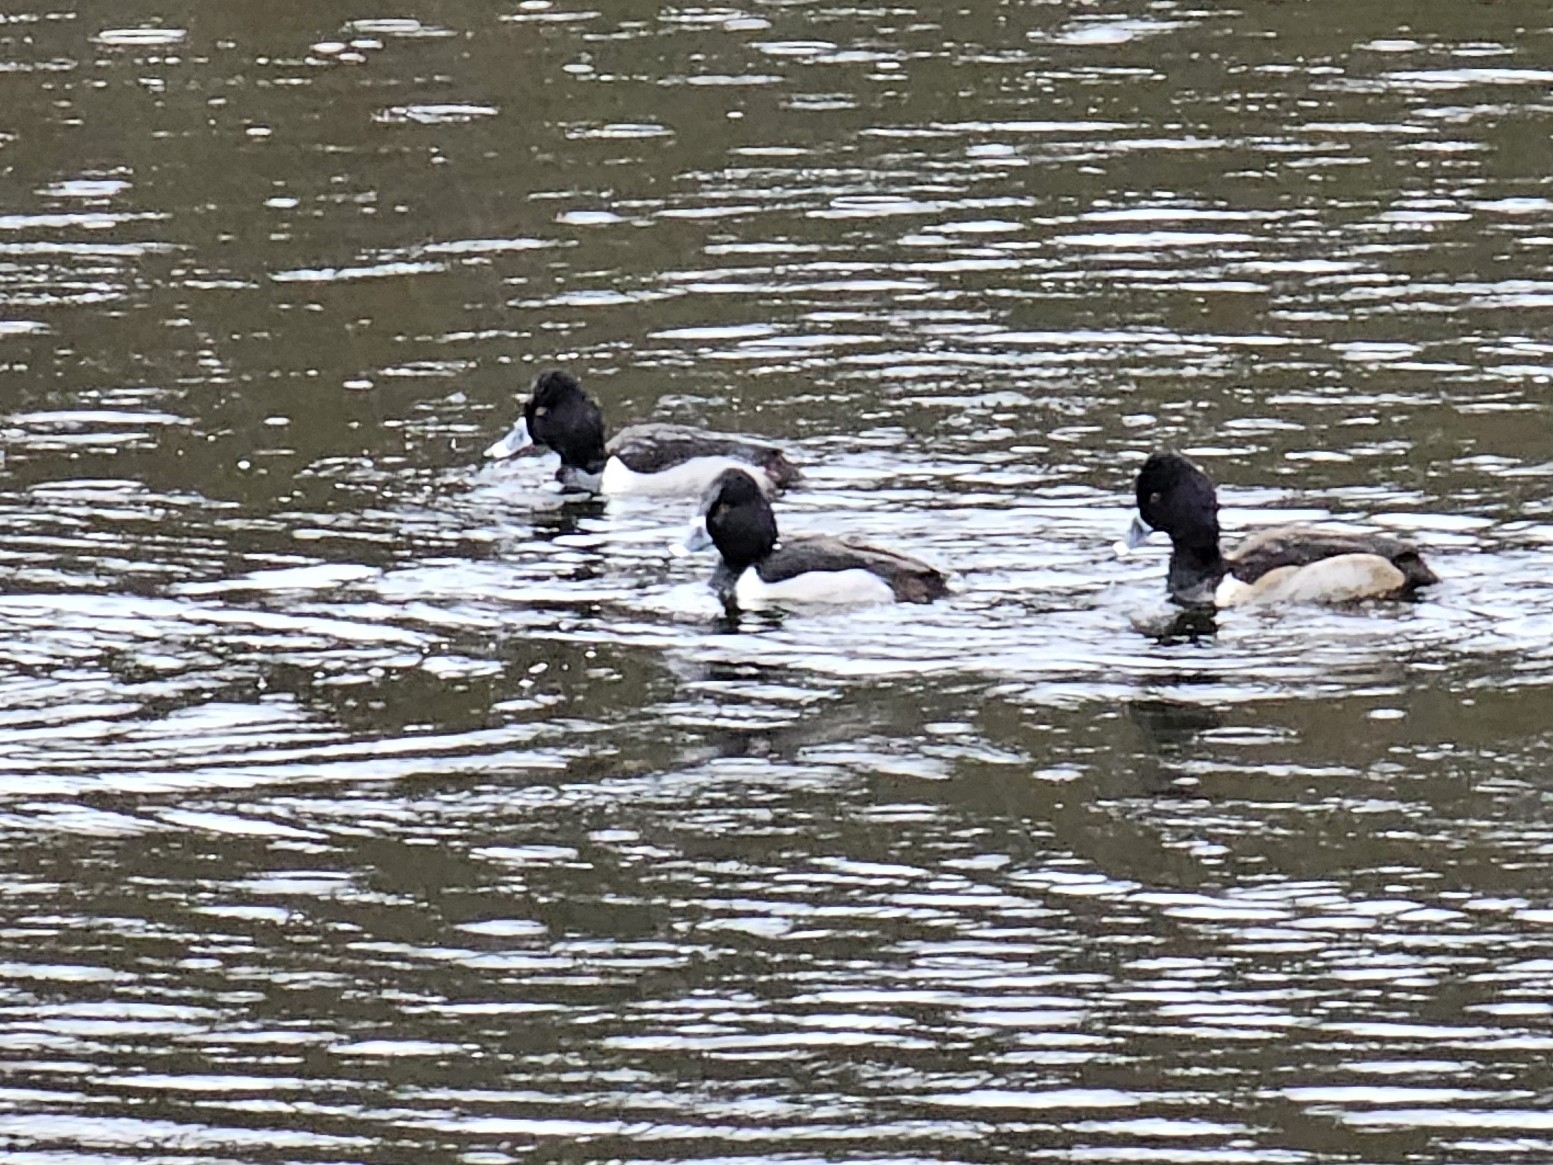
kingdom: Animalia
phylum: Chordata
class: Aves
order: Anseriformes
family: Anatidae
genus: Aythya
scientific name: Aythya collaris
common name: Ring-necked duck
